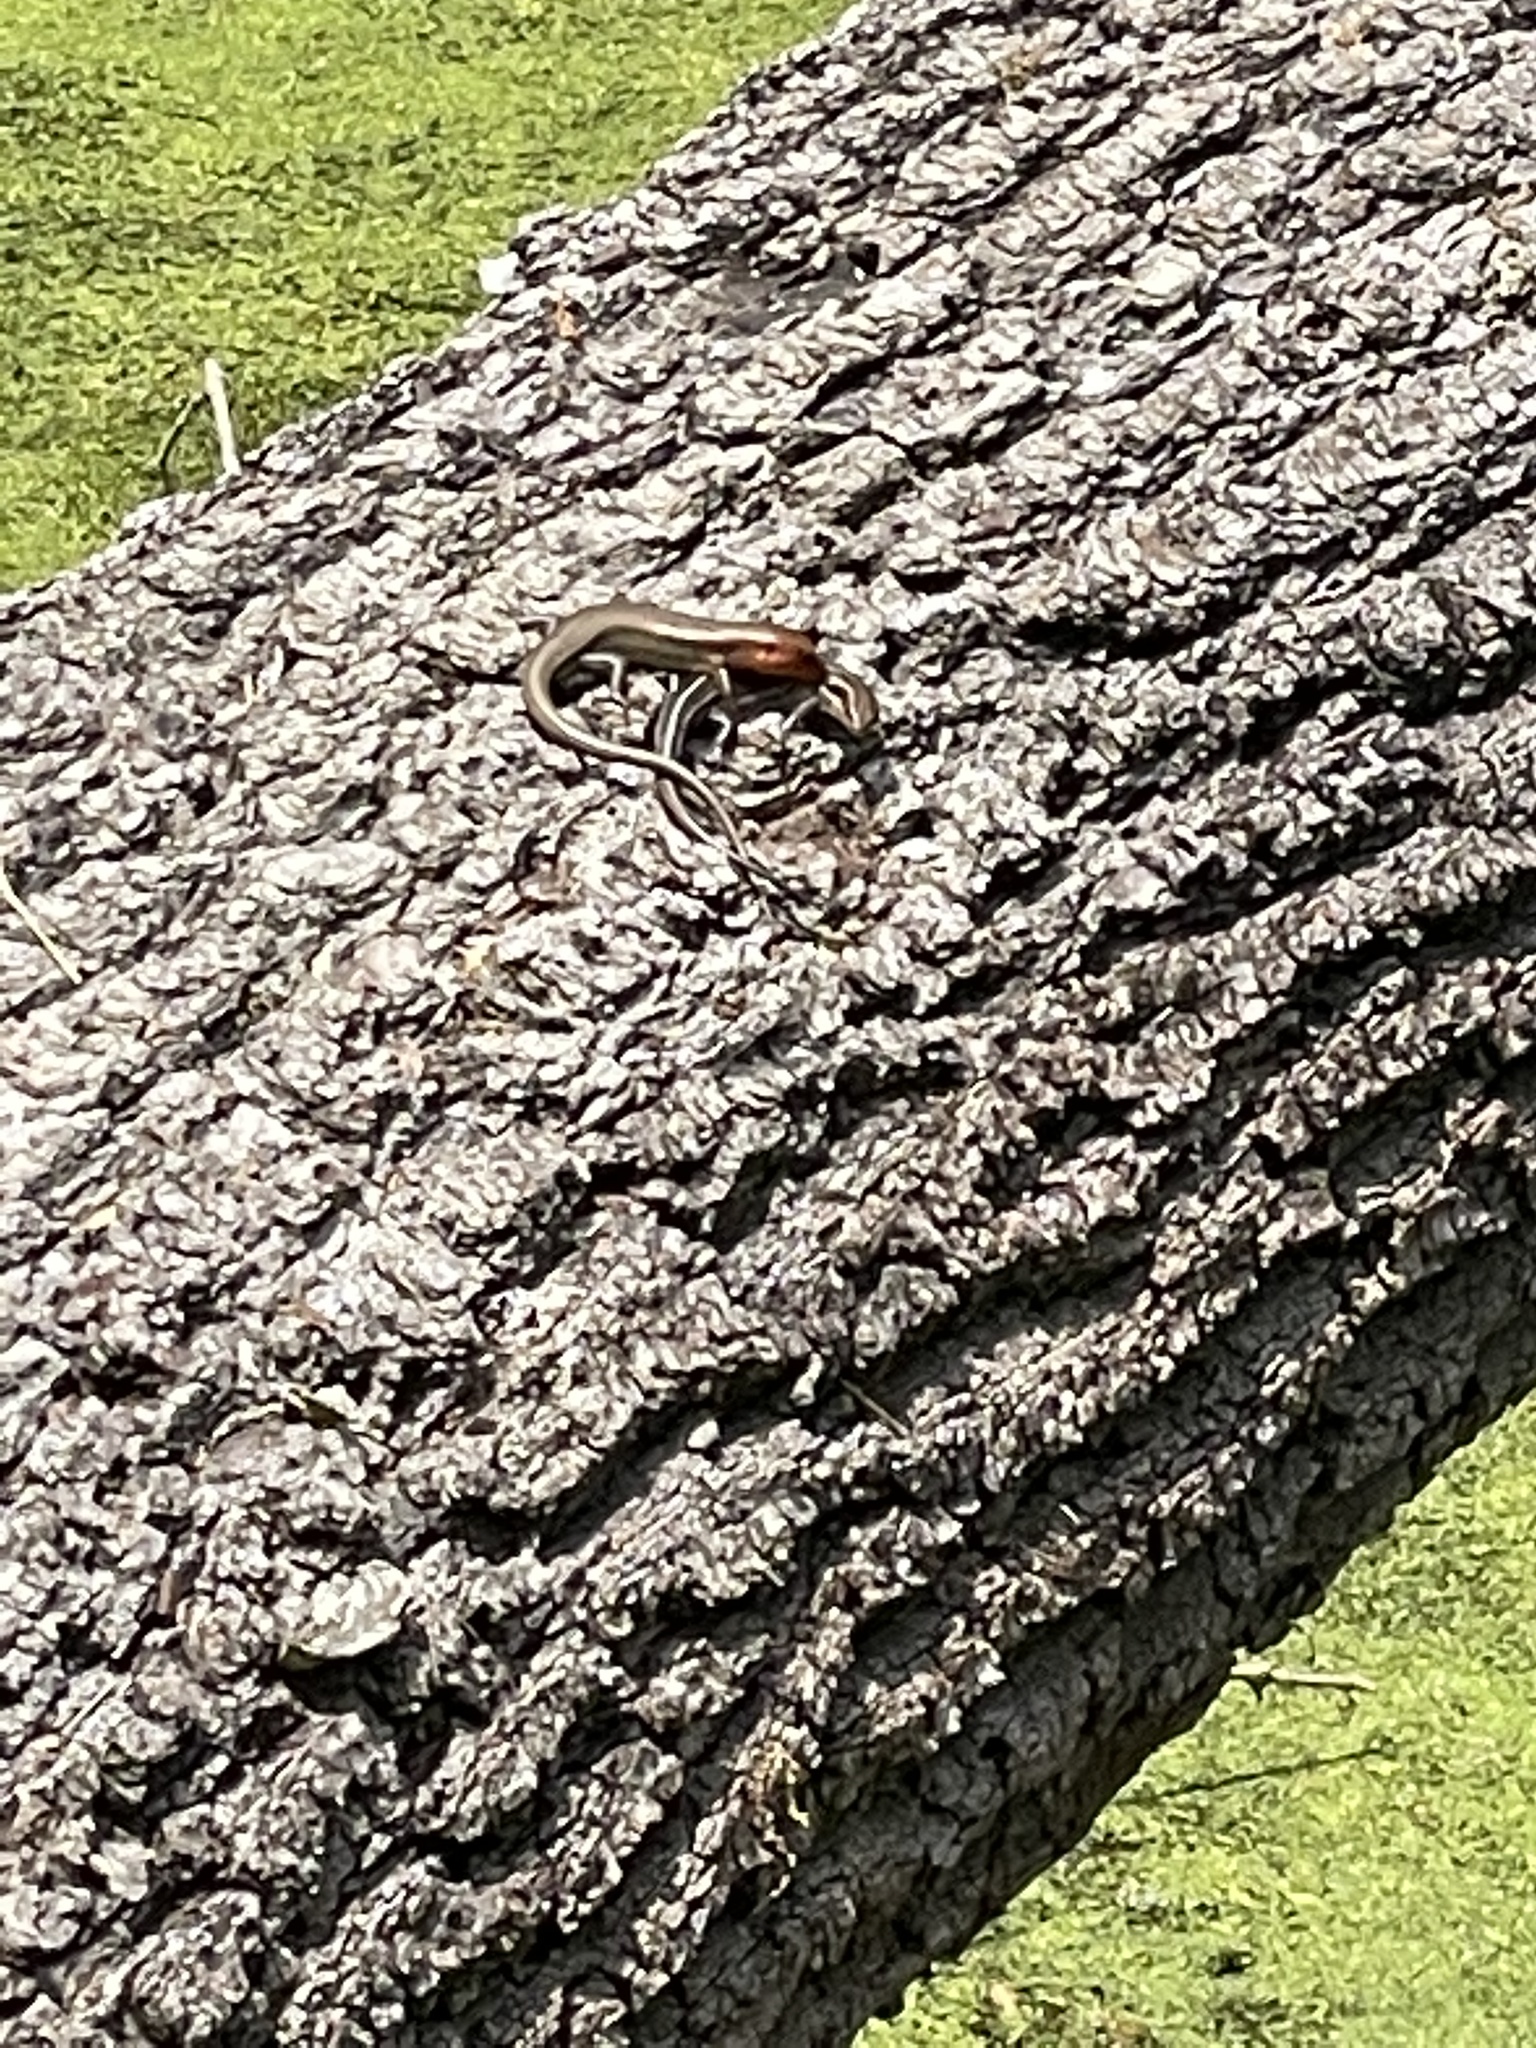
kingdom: Animalia
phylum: Chordata
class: Squamata
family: Scincidae
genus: Plestiodon
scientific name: Plestiodon fasciatus
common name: Five-lined skink
